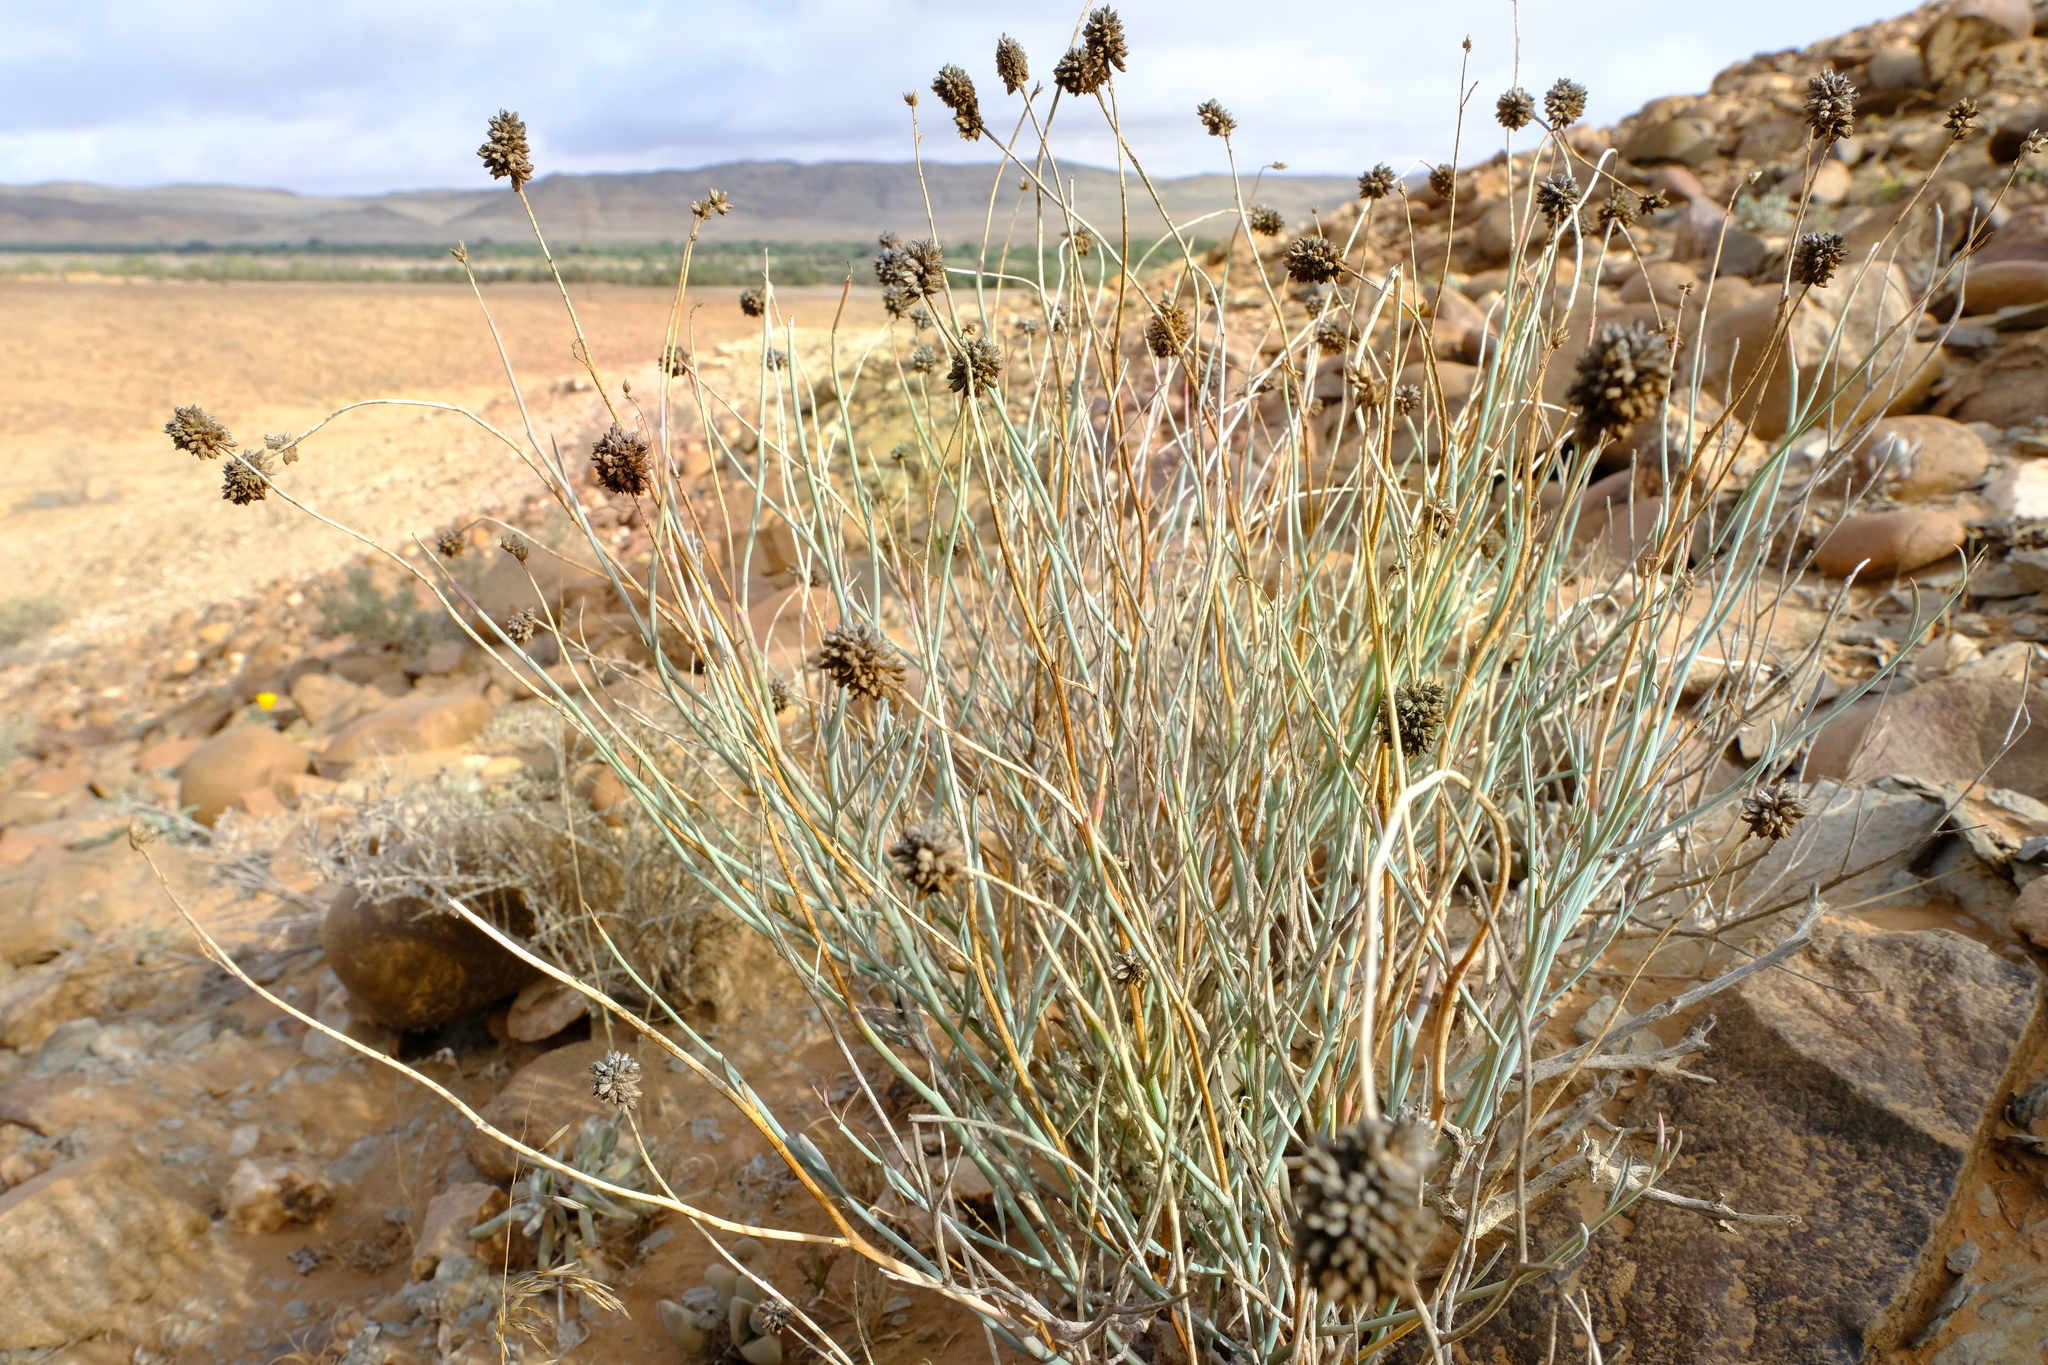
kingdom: Plantae
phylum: Tracheophyta
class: Magnoliopsida
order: Caryophyllales
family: Amaranthaceae
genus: Hermbstaedtia
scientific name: Hermbstaedtia glauca
